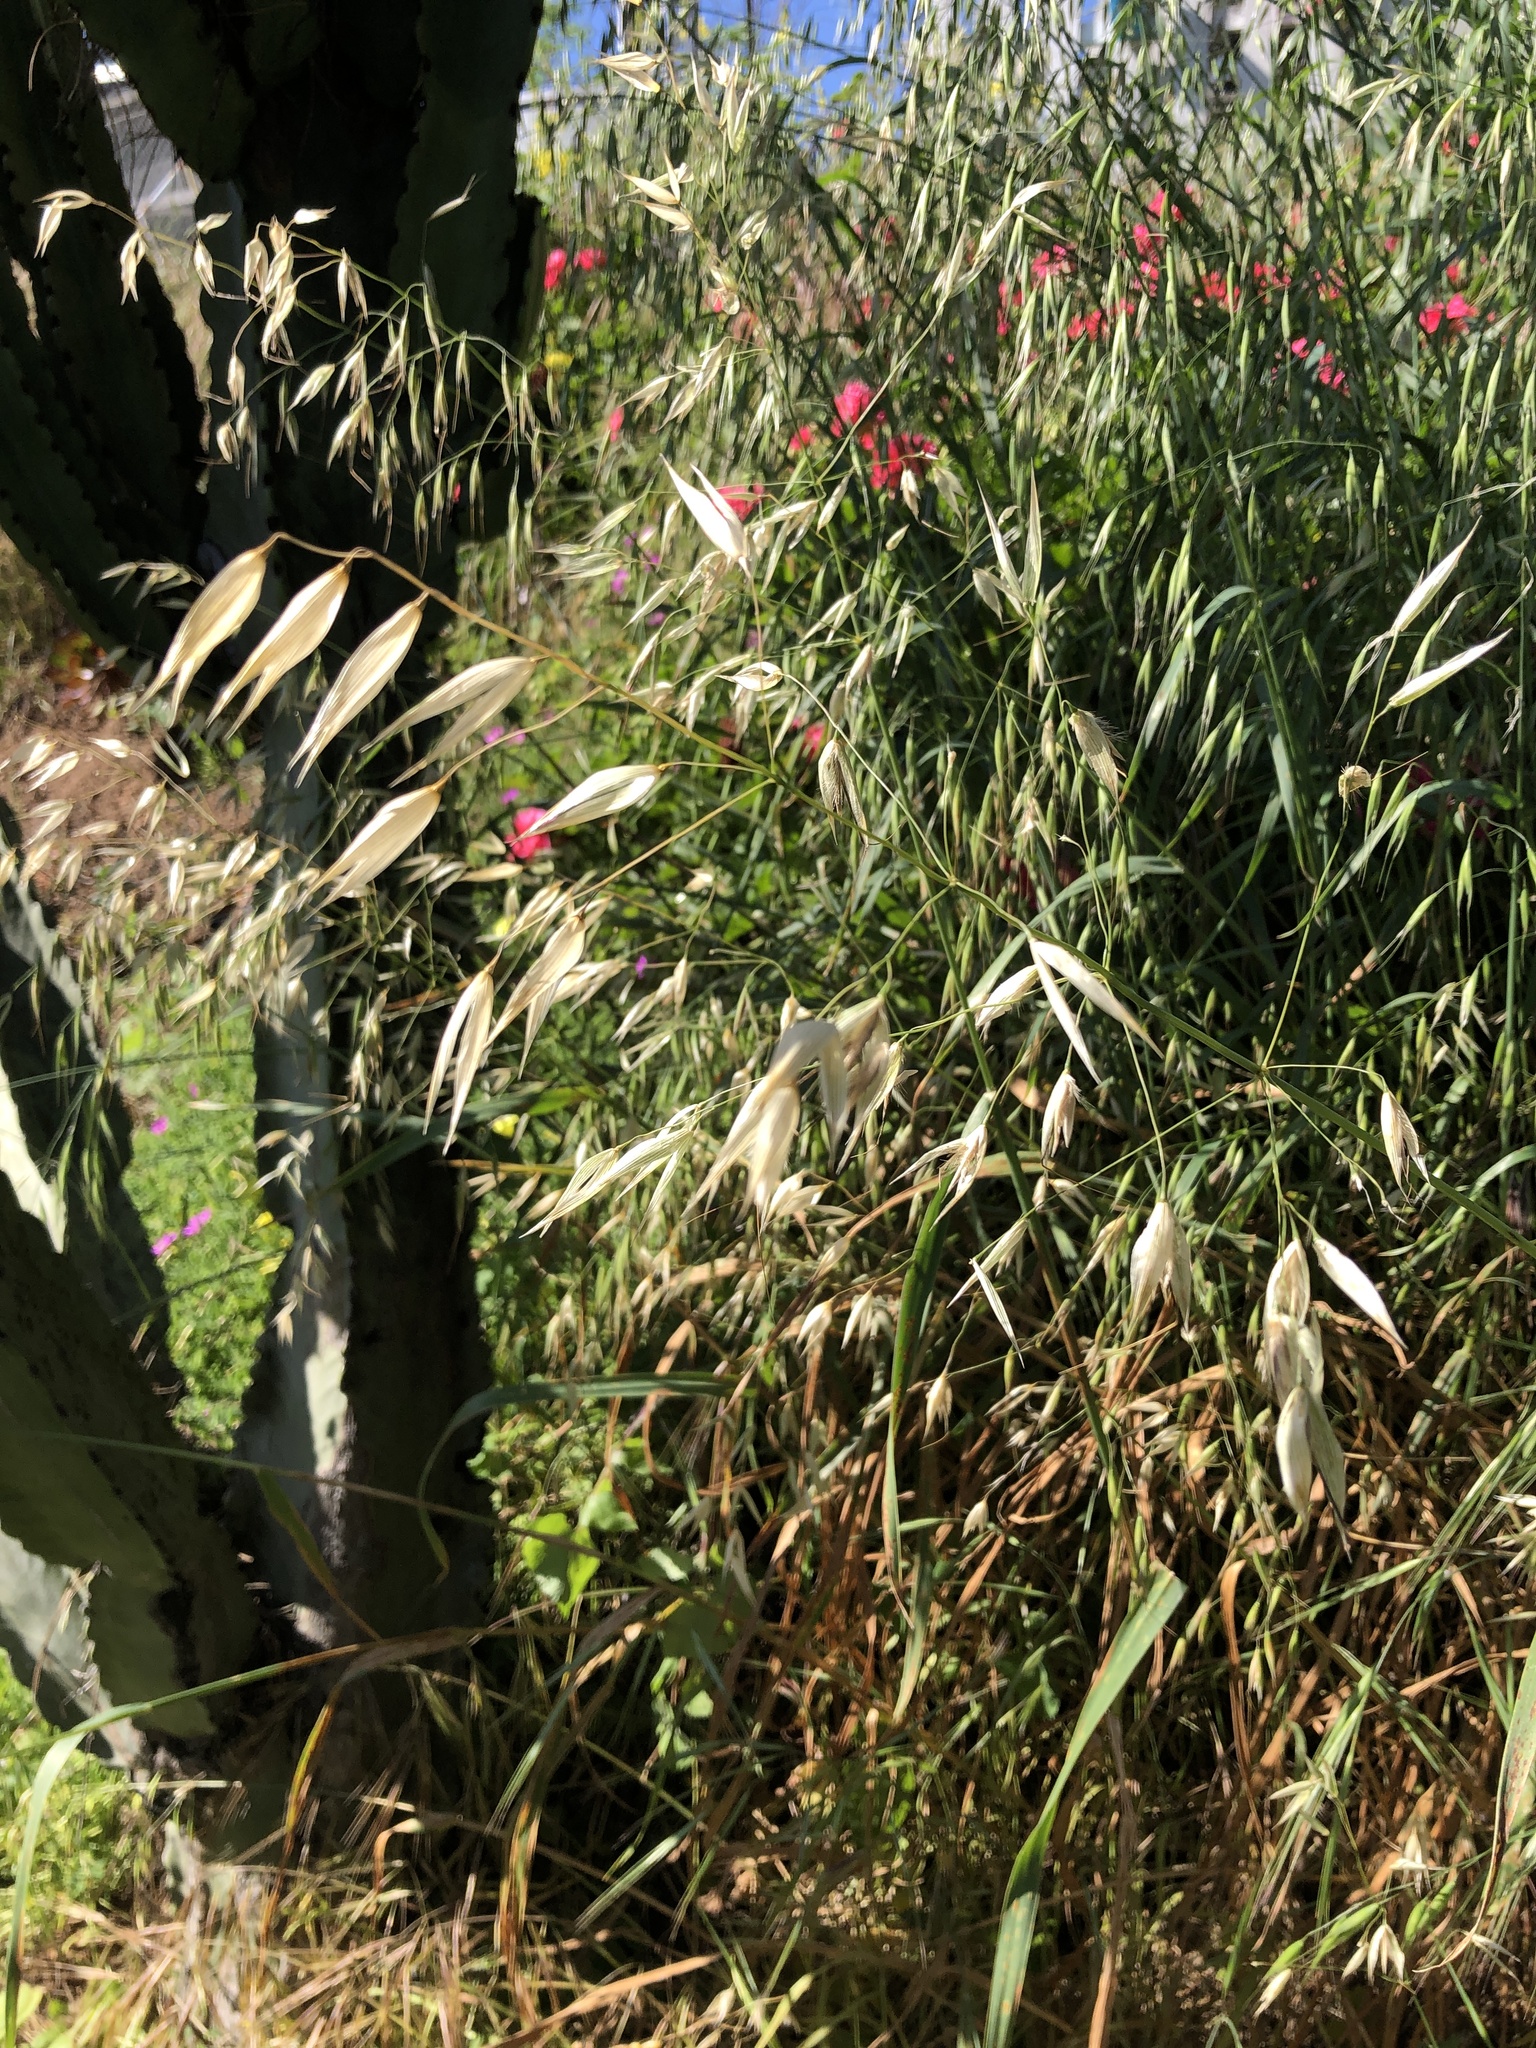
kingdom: Plantae
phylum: Tracheophyta
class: Liliopsida
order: Poales
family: Poaceae
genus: Avena
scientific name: Avena fatua
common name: Wild oat
